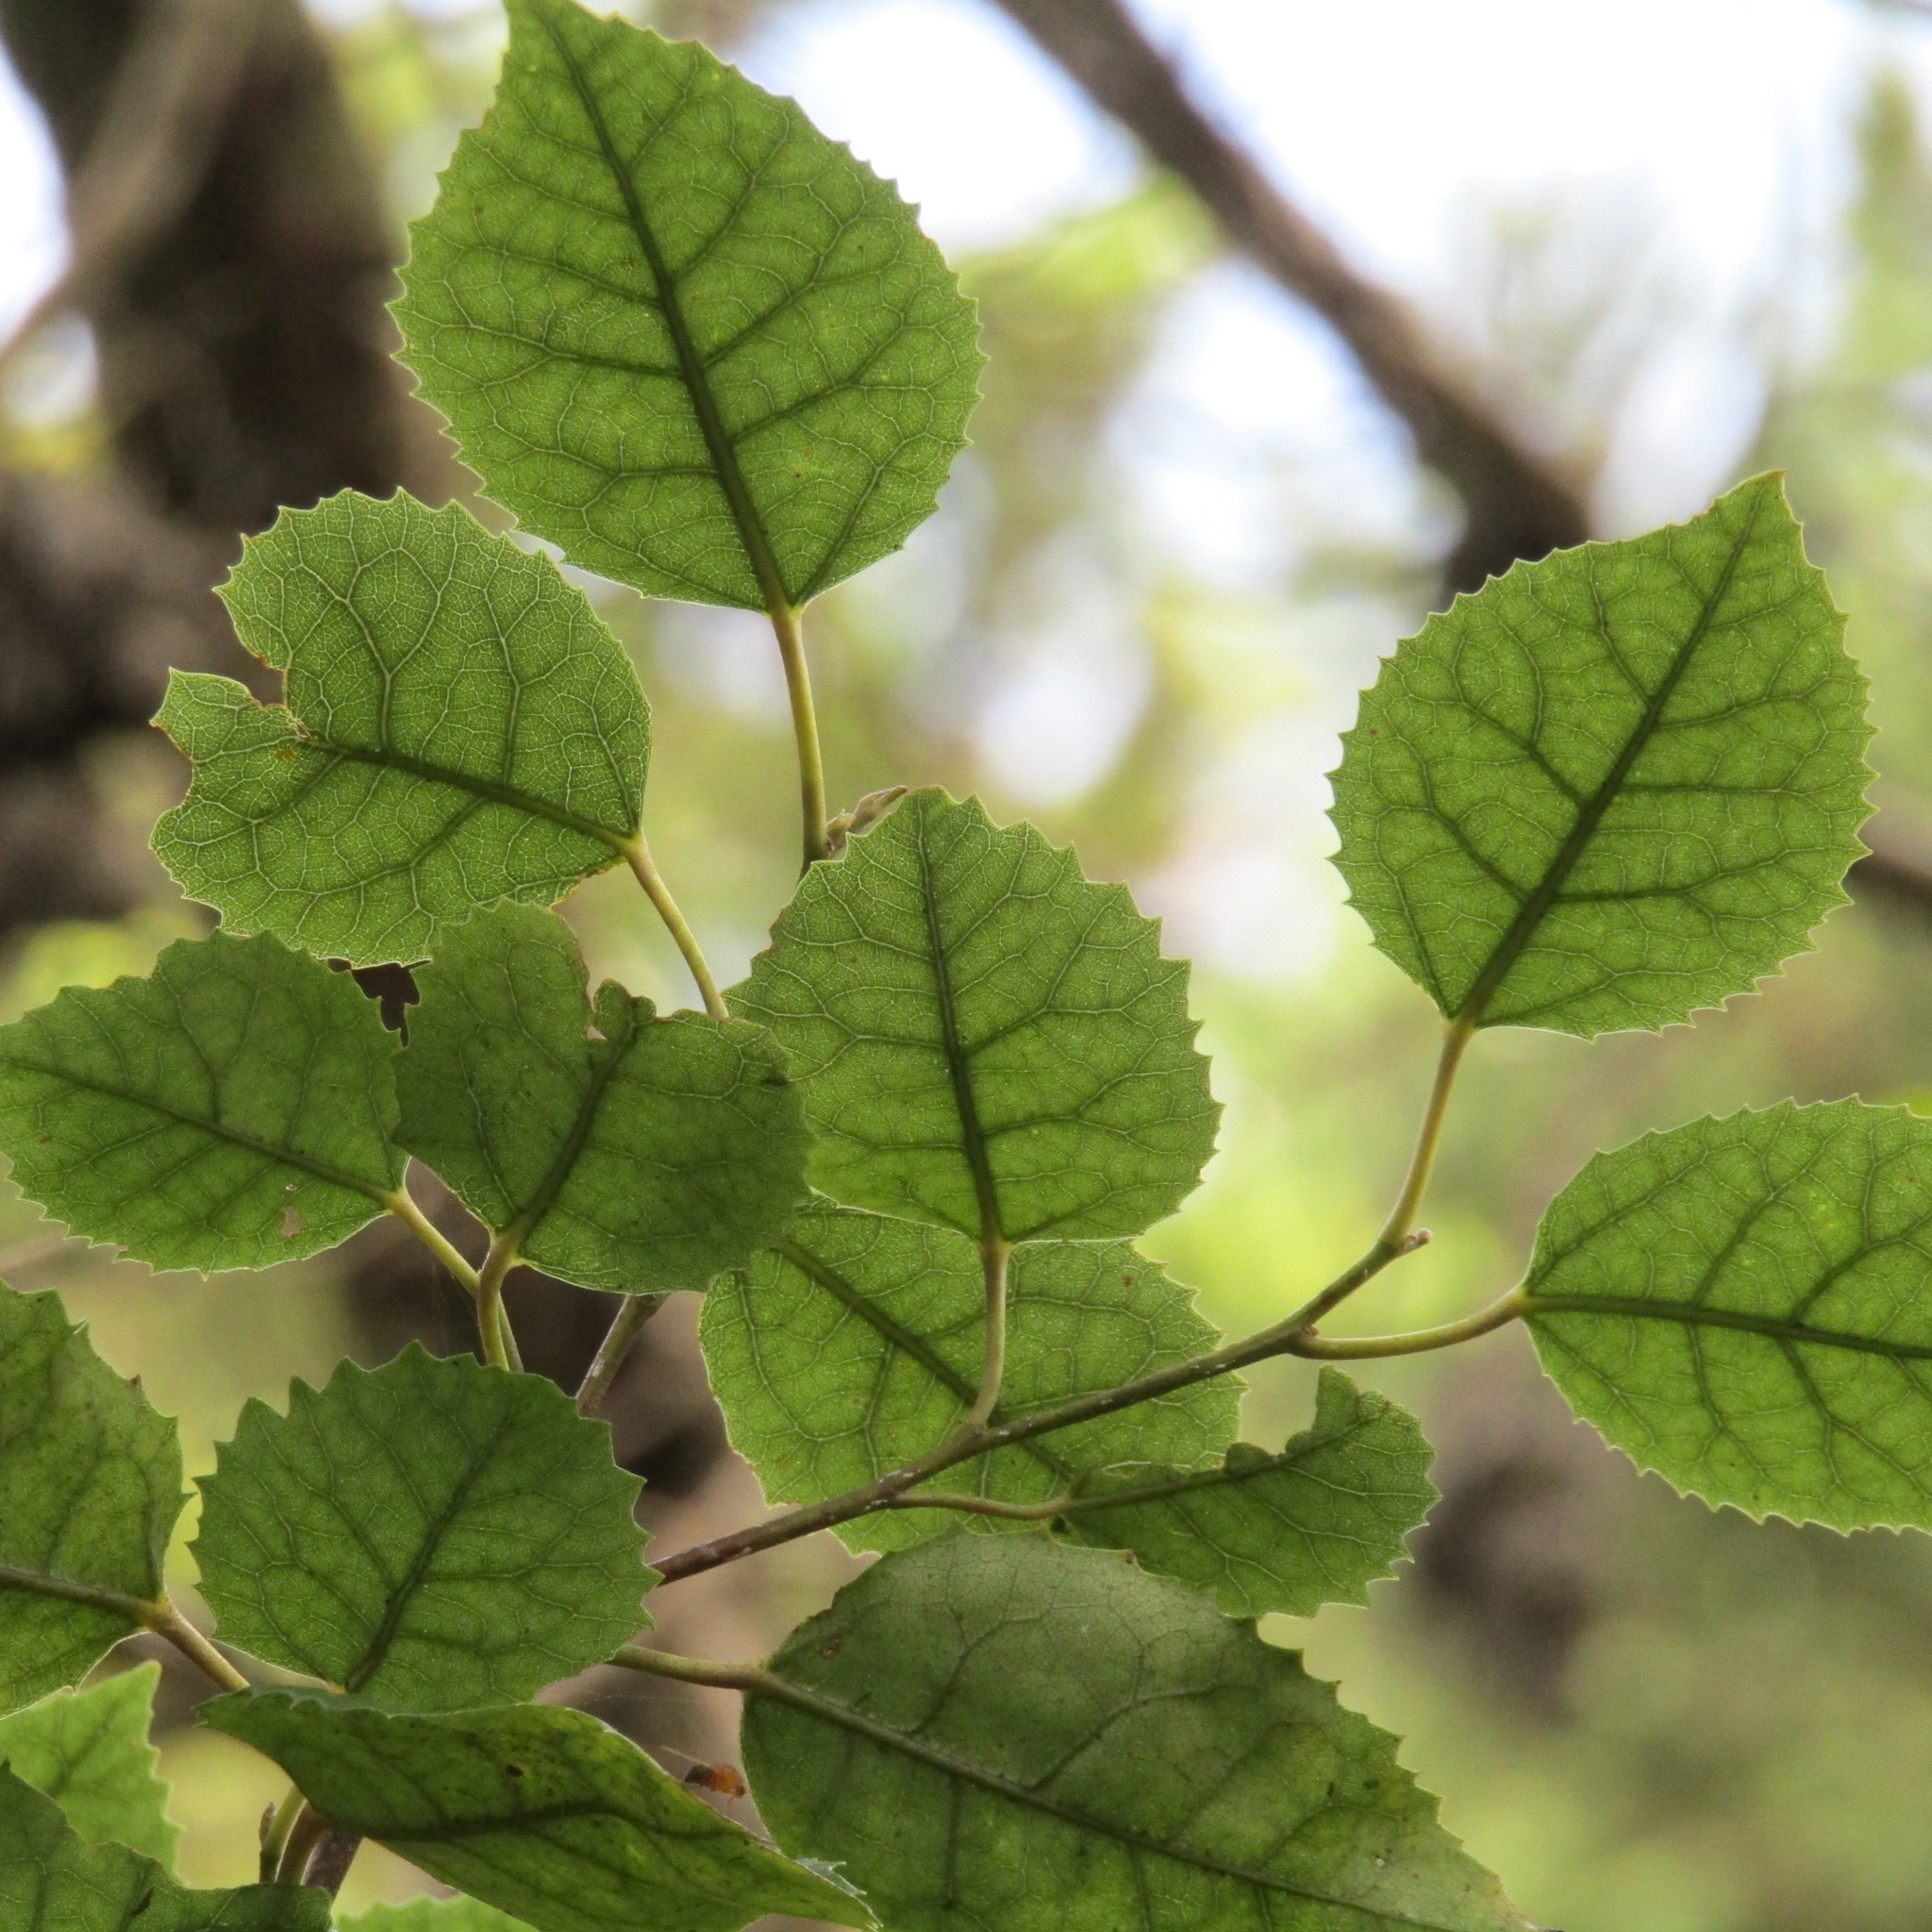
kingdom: Plantae
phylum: Tracheophyta
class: Magnoliopsida
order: Malvales
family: Malvaceae
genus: Hoheria
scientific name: Hoheria populnea
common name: Lacebark
